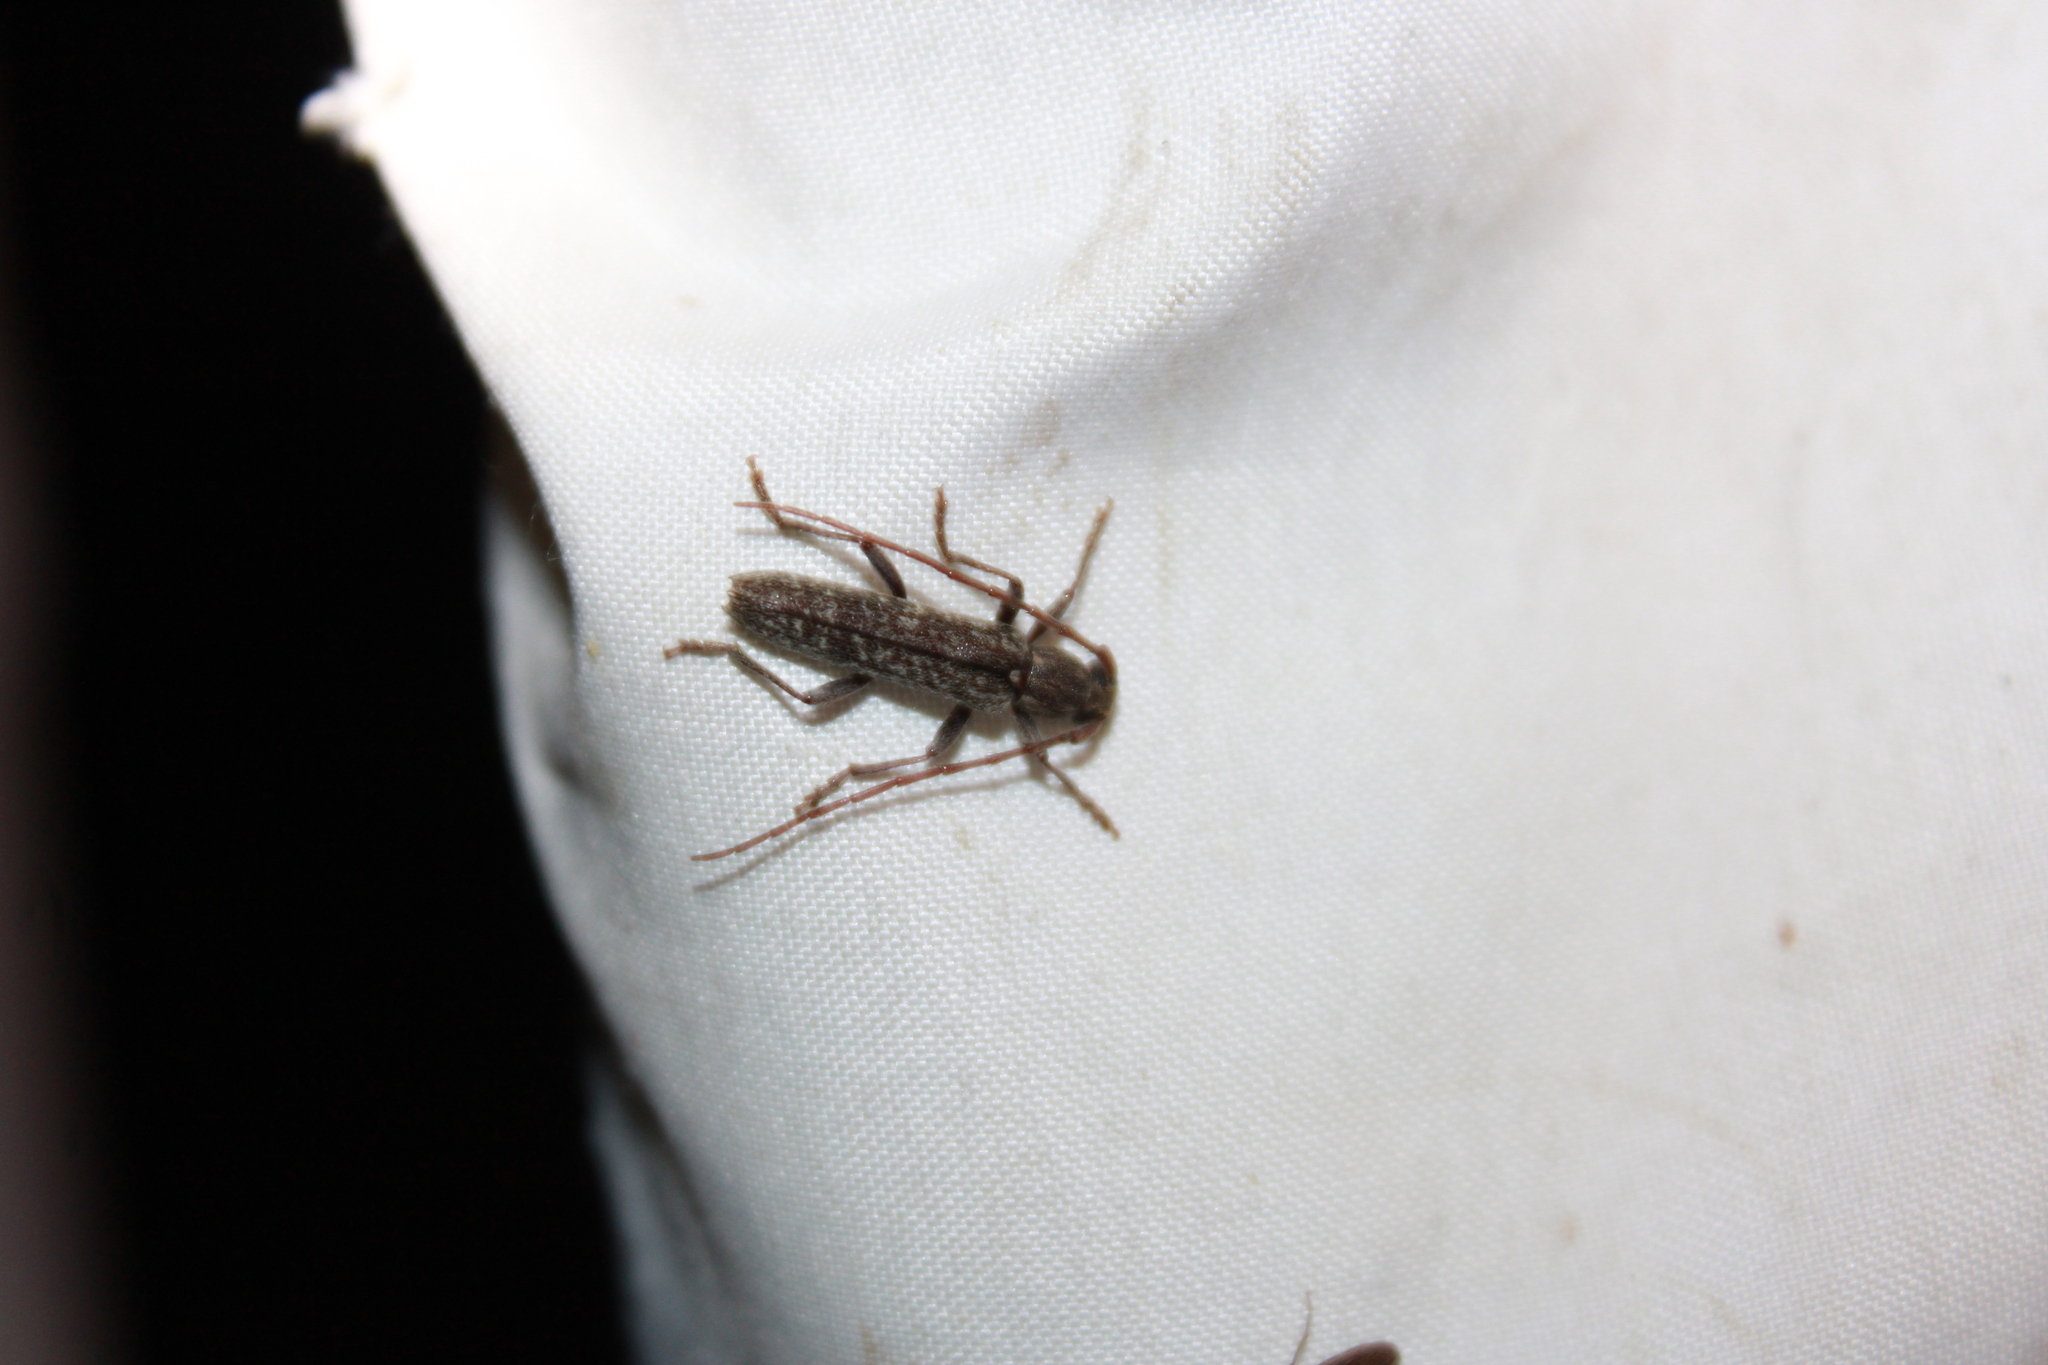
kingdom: Animalia
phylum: Arthropoda
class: Insecta
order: Coleoptera
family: Cerambycidae
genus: Anelaphus
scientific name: Anelaphus villosus
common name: Twig pruner
